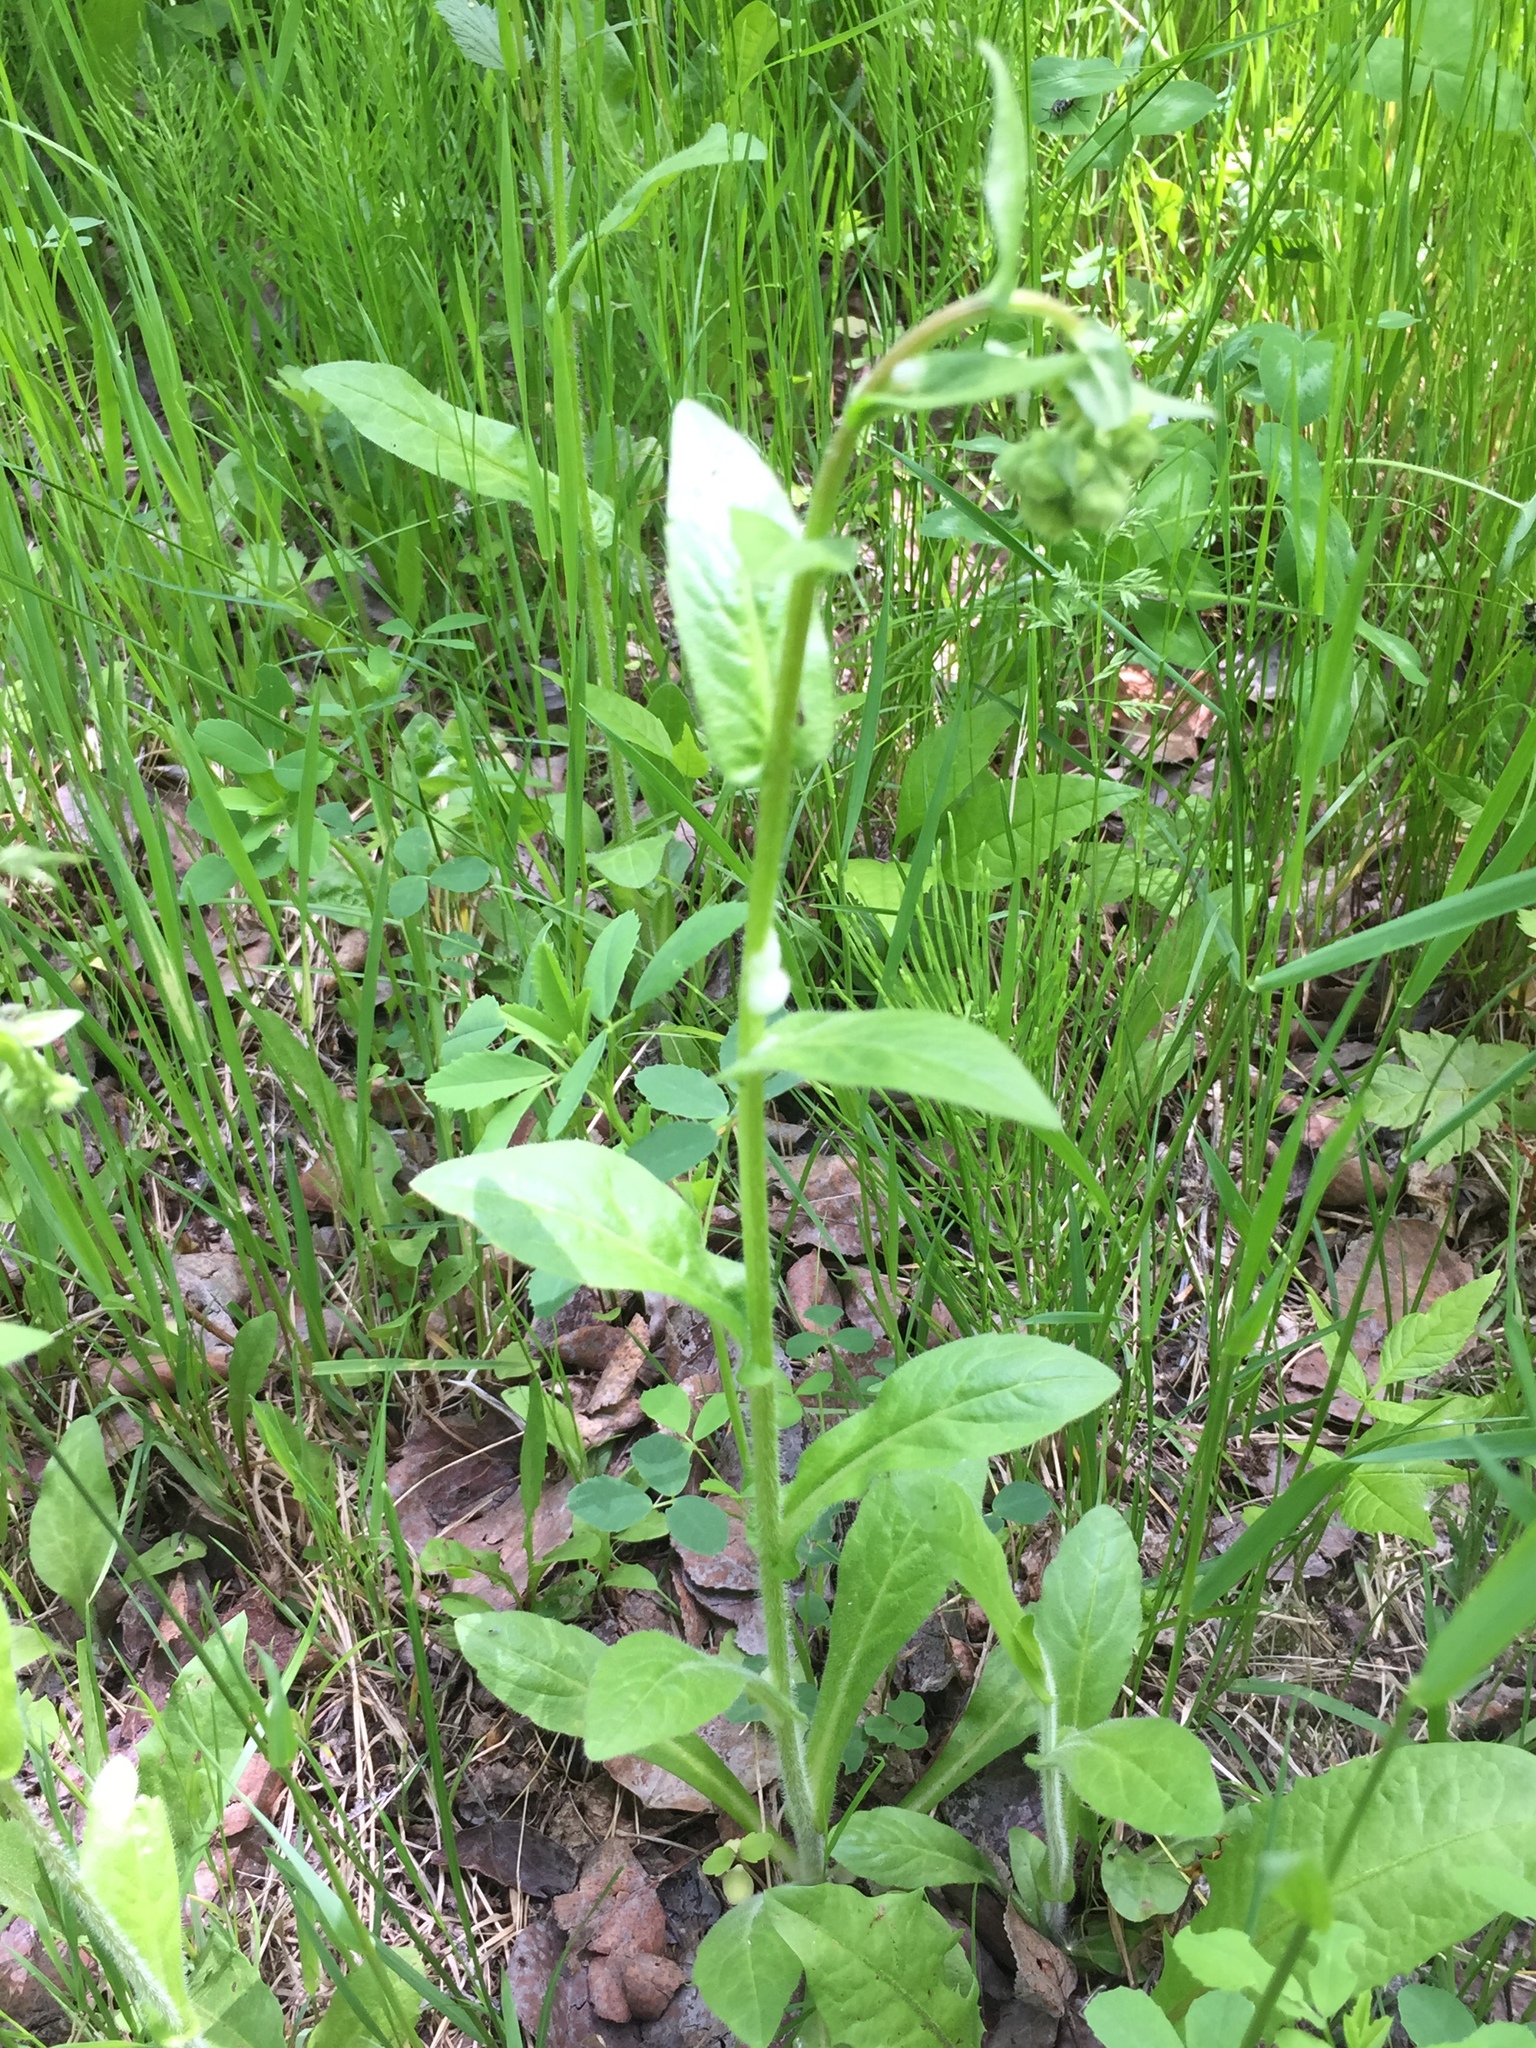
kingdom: Plantae
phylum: Tracheophyta
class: Magnoliopsida
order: Asterales
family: Asteraceae
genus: Erigeron
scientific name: Erigeron philadelphicus
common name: Robin's-plantain
